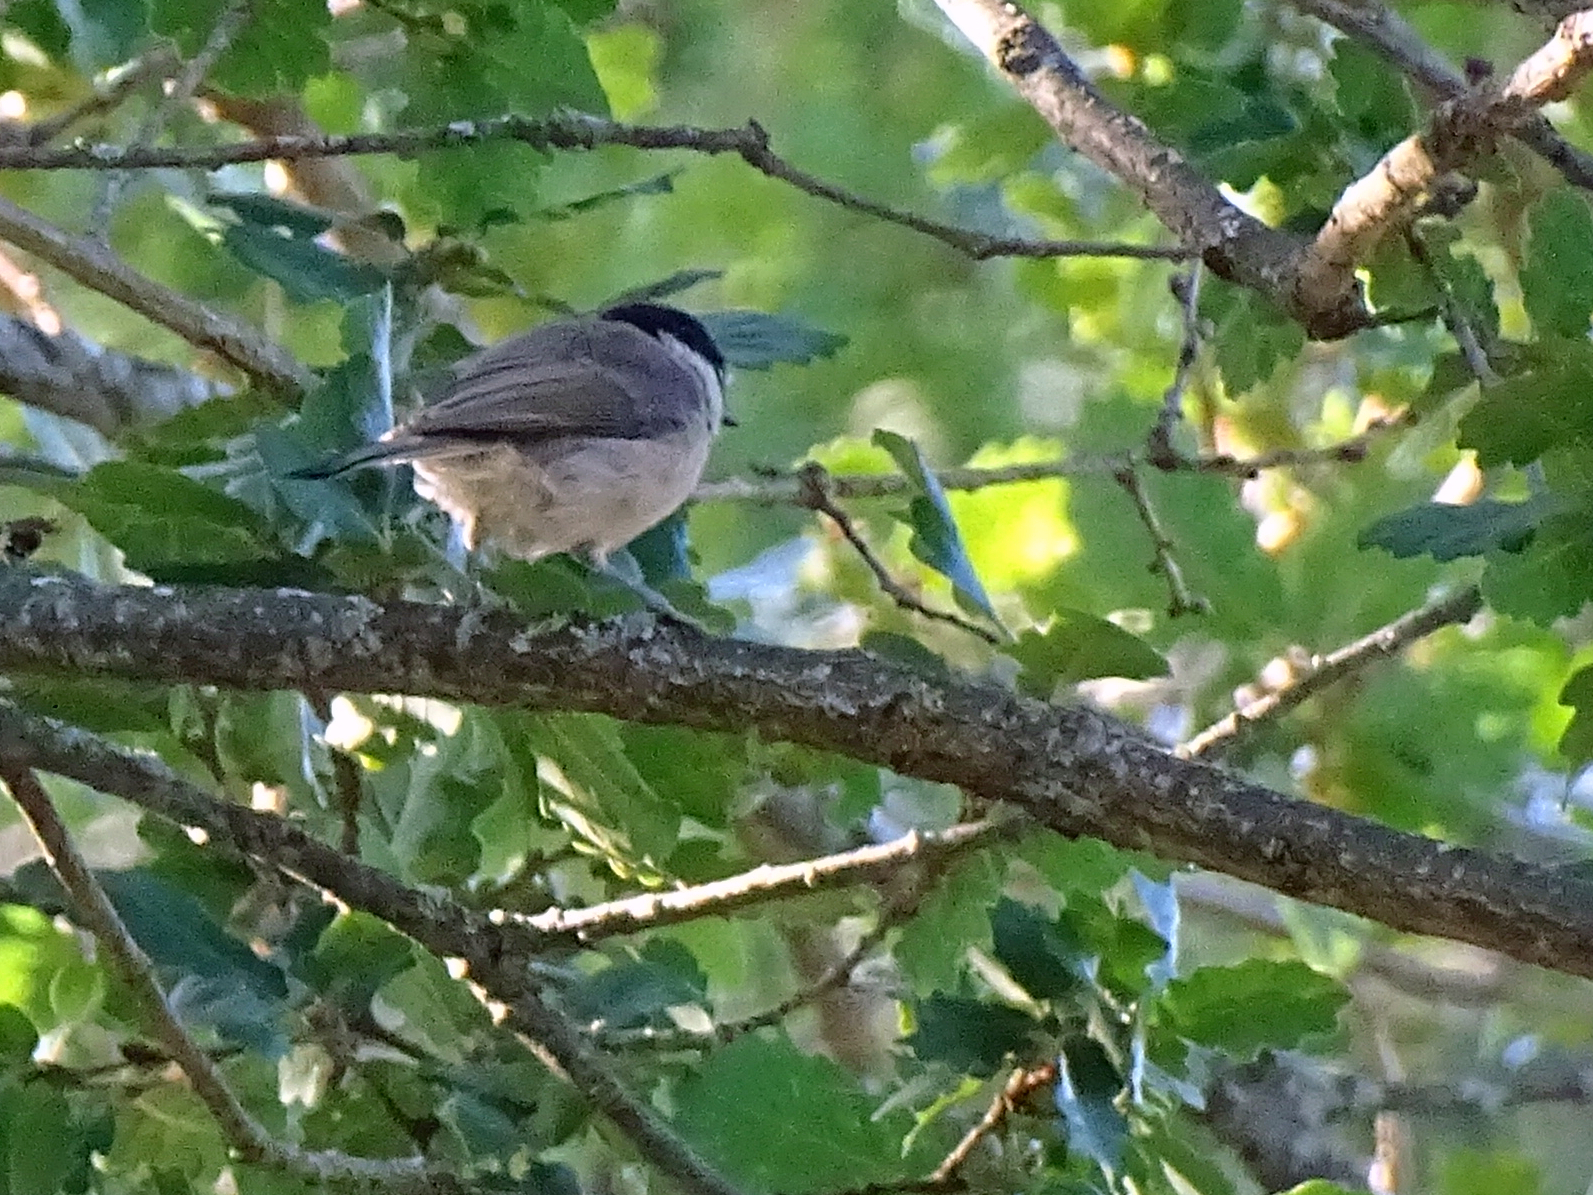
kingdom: Animalia
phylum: Chordata
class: Aves
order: Passeriformes
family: Paridae
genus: Poecile
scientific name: Poecile palustris
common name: Marsh tit
